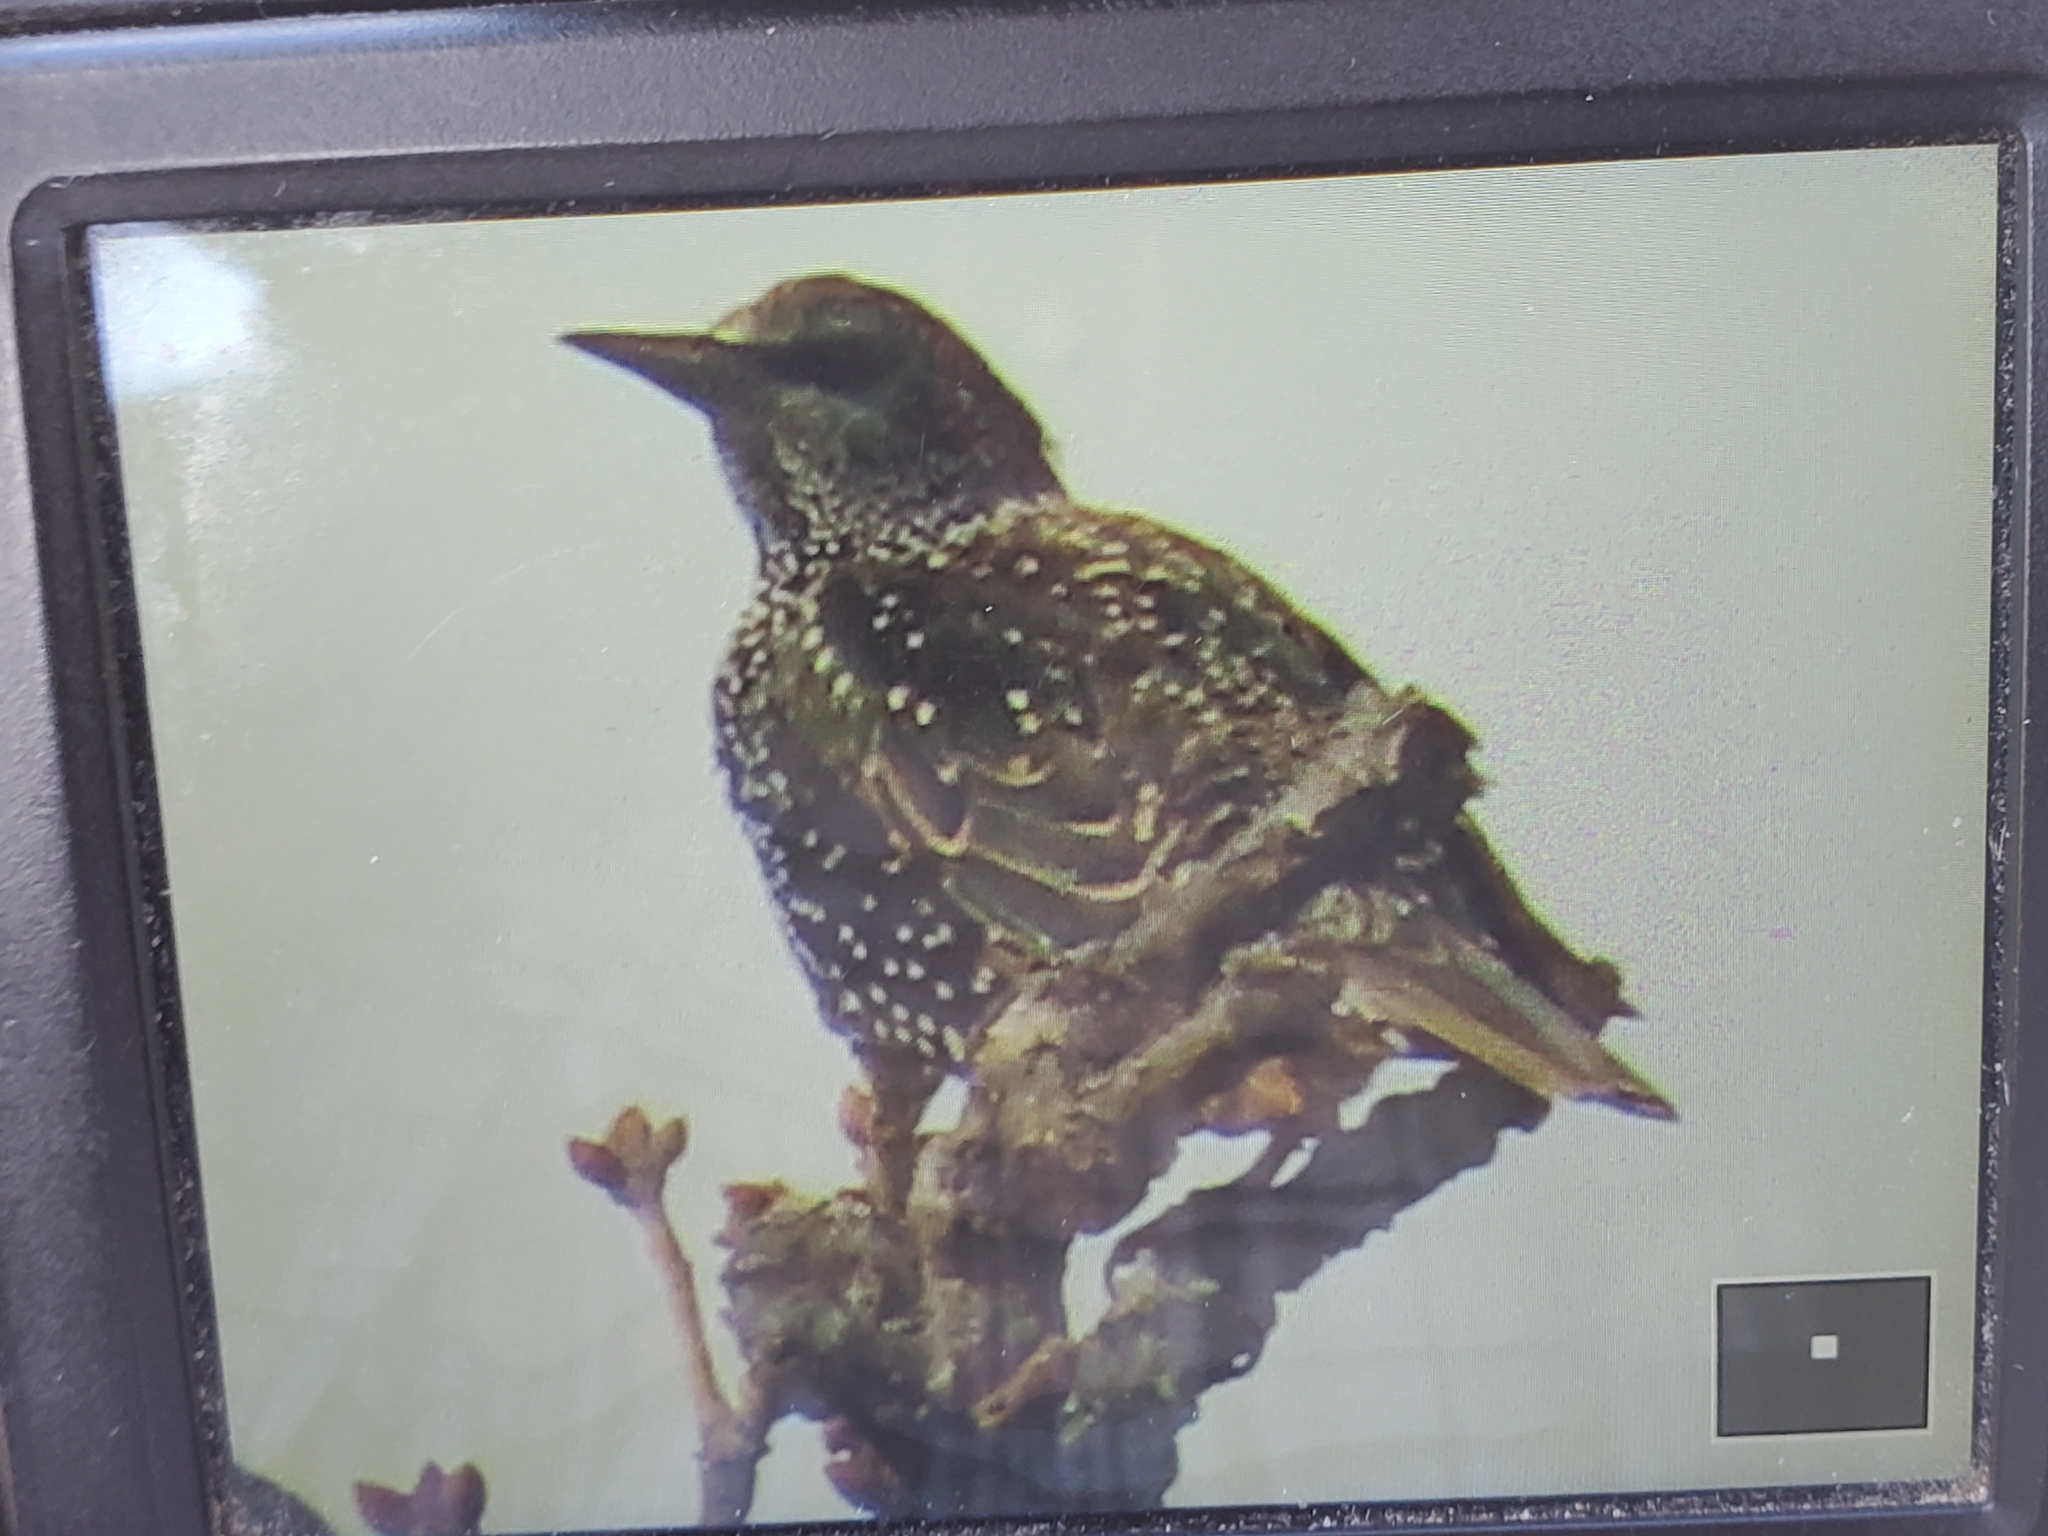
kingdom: Animalia
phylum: Chordata
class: Aves
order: Passeriformes
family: Sturnidae
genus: Sturnus
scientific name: Sturnus vulgaris
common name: Common starling
